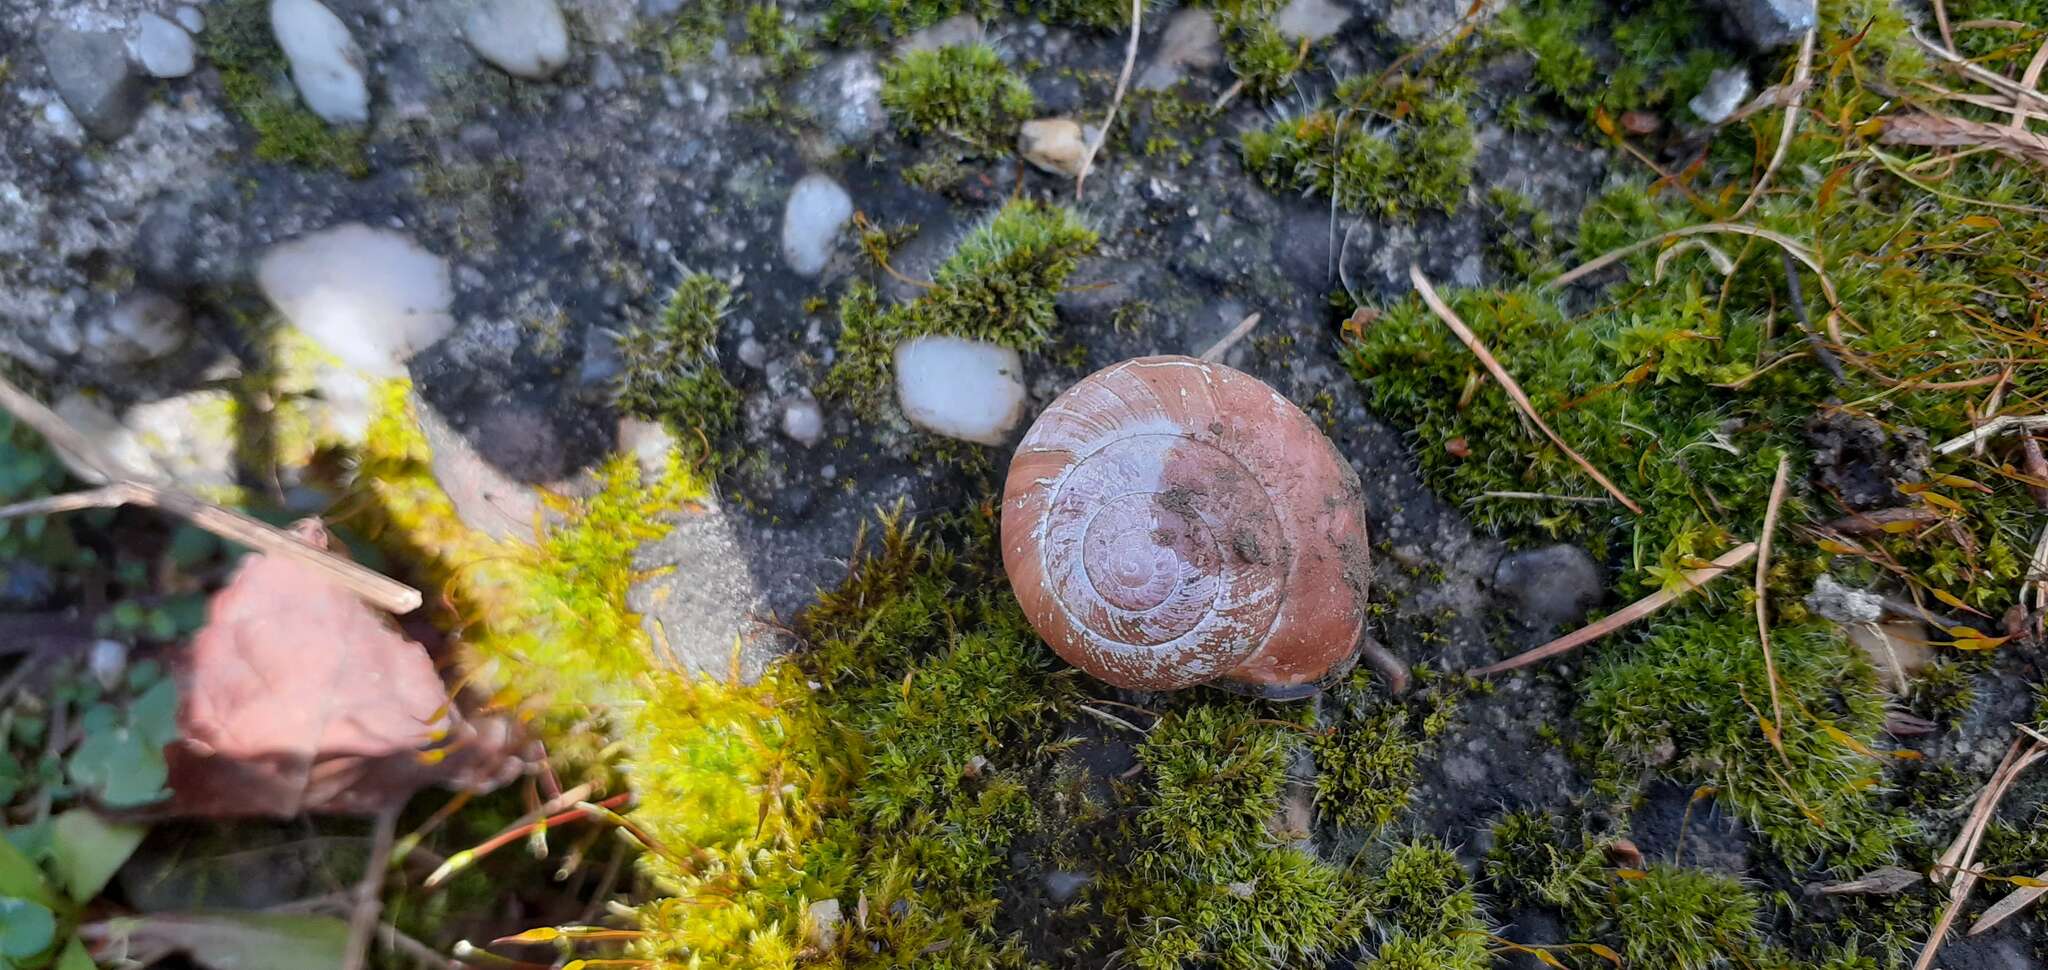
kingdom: Animalia
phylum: Mollusca
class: Gastropoda
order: Stylommatophora
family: Helicidae
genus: Cepaea
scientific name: Cepaea nemoralis
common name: Grovesnail
